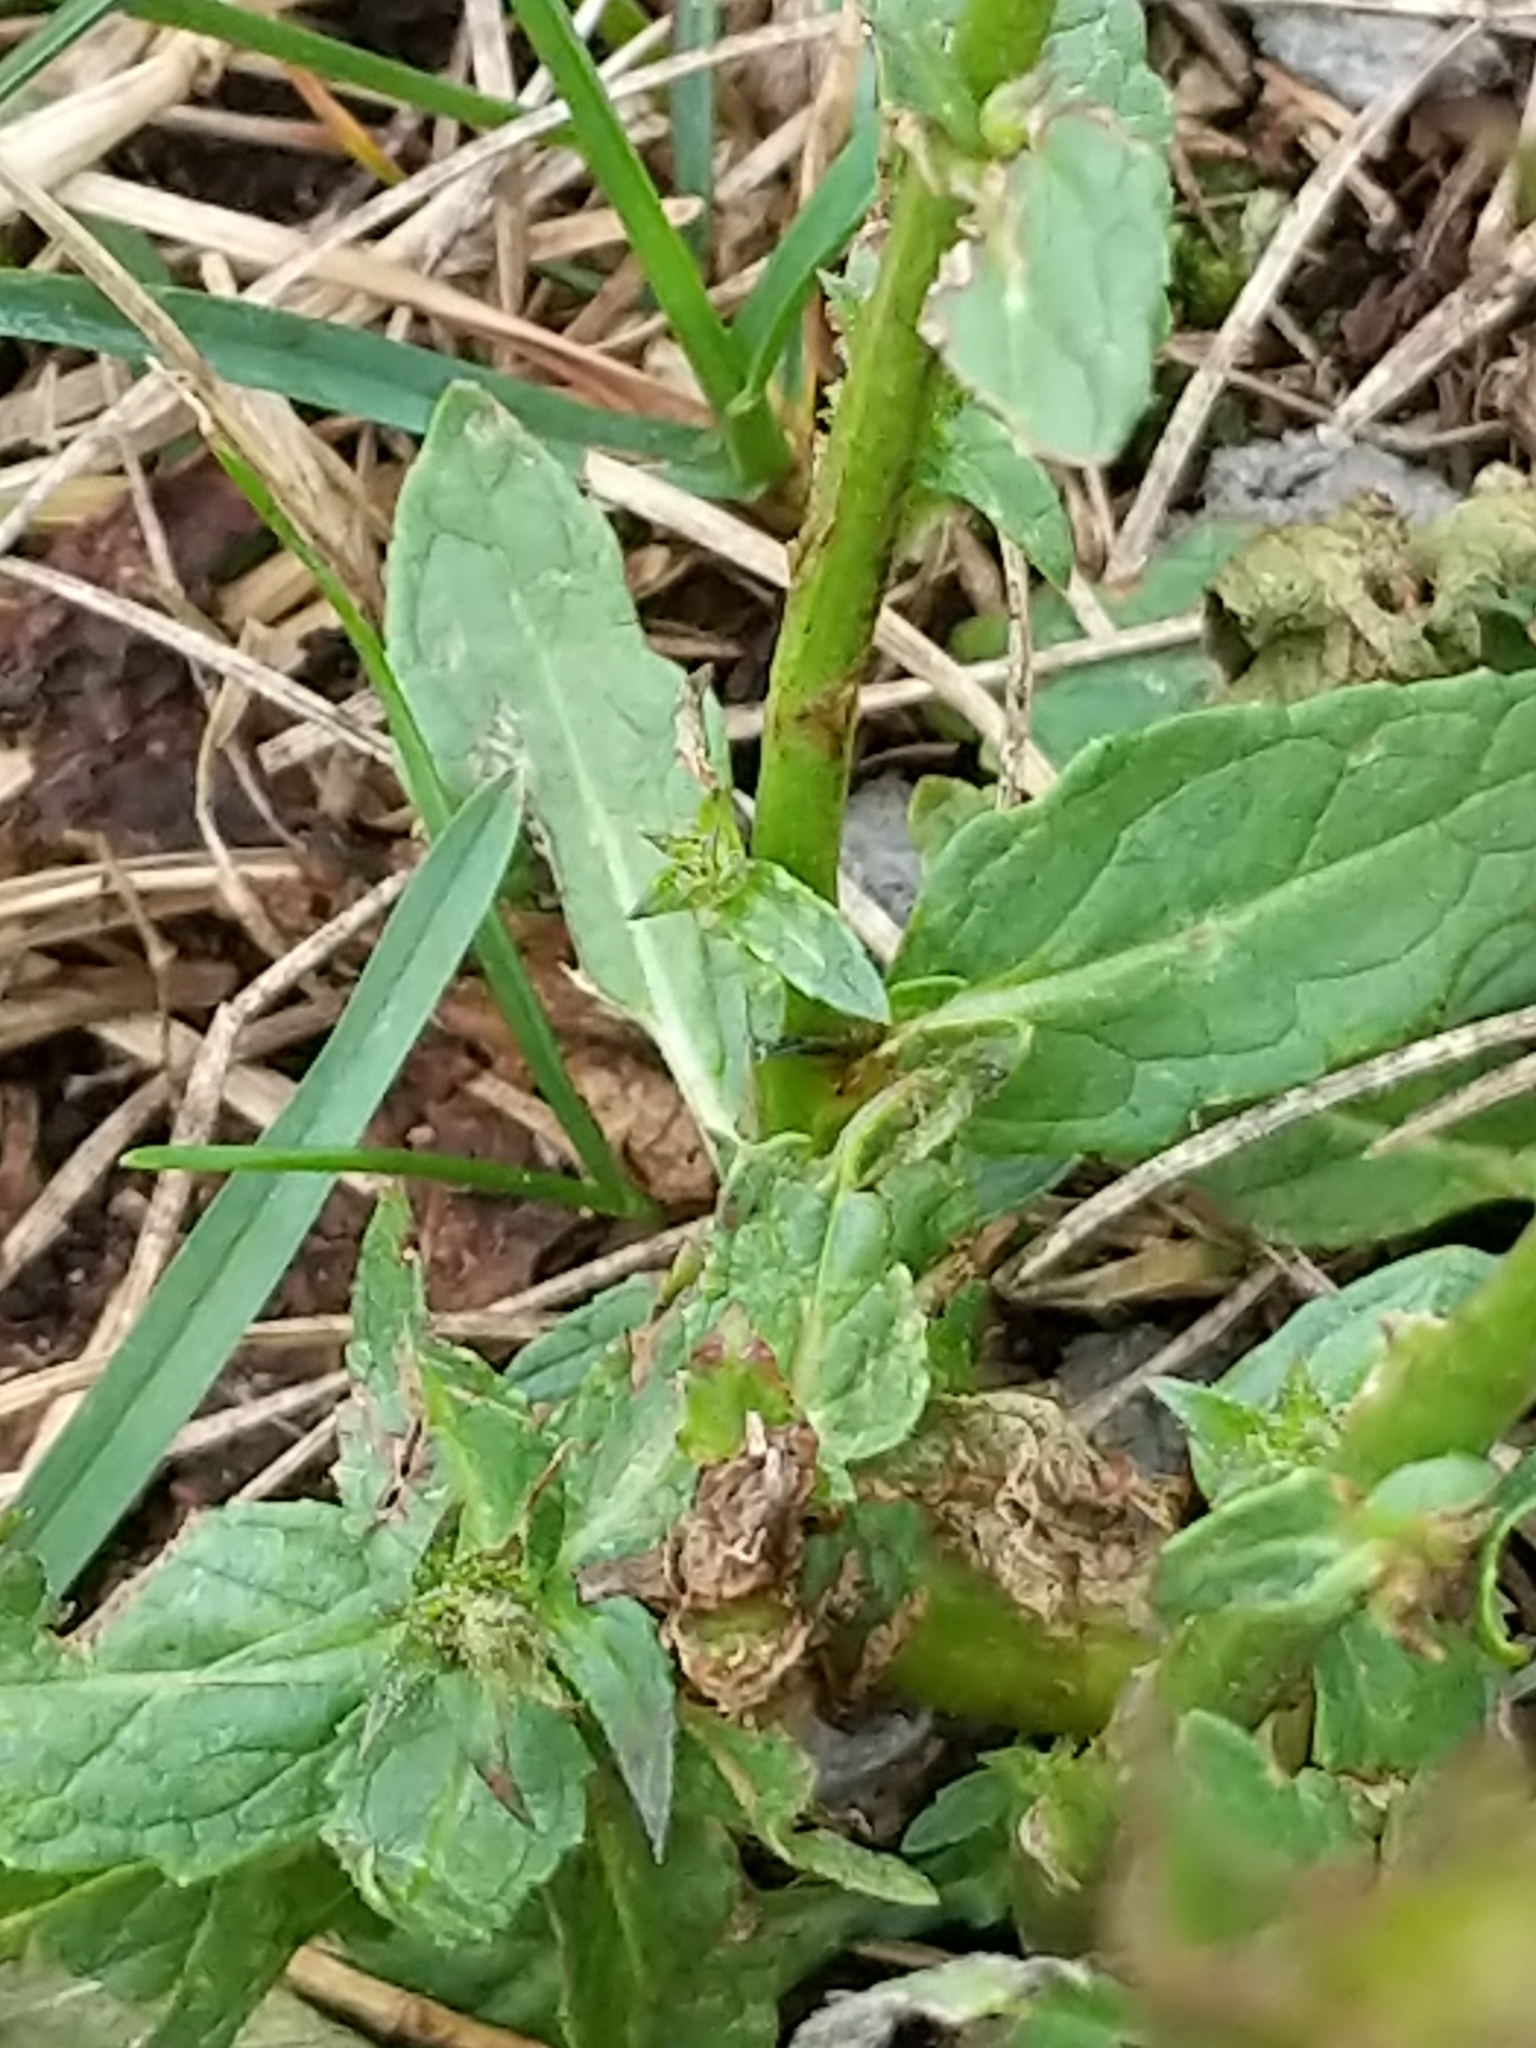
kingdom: Plantae
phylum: Tracheophyta
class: Magnoliopsida
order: Lamiales
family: Scrophulariaceae
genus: Verbascum
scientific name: Verbascum blattaria
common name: Moth mullein
